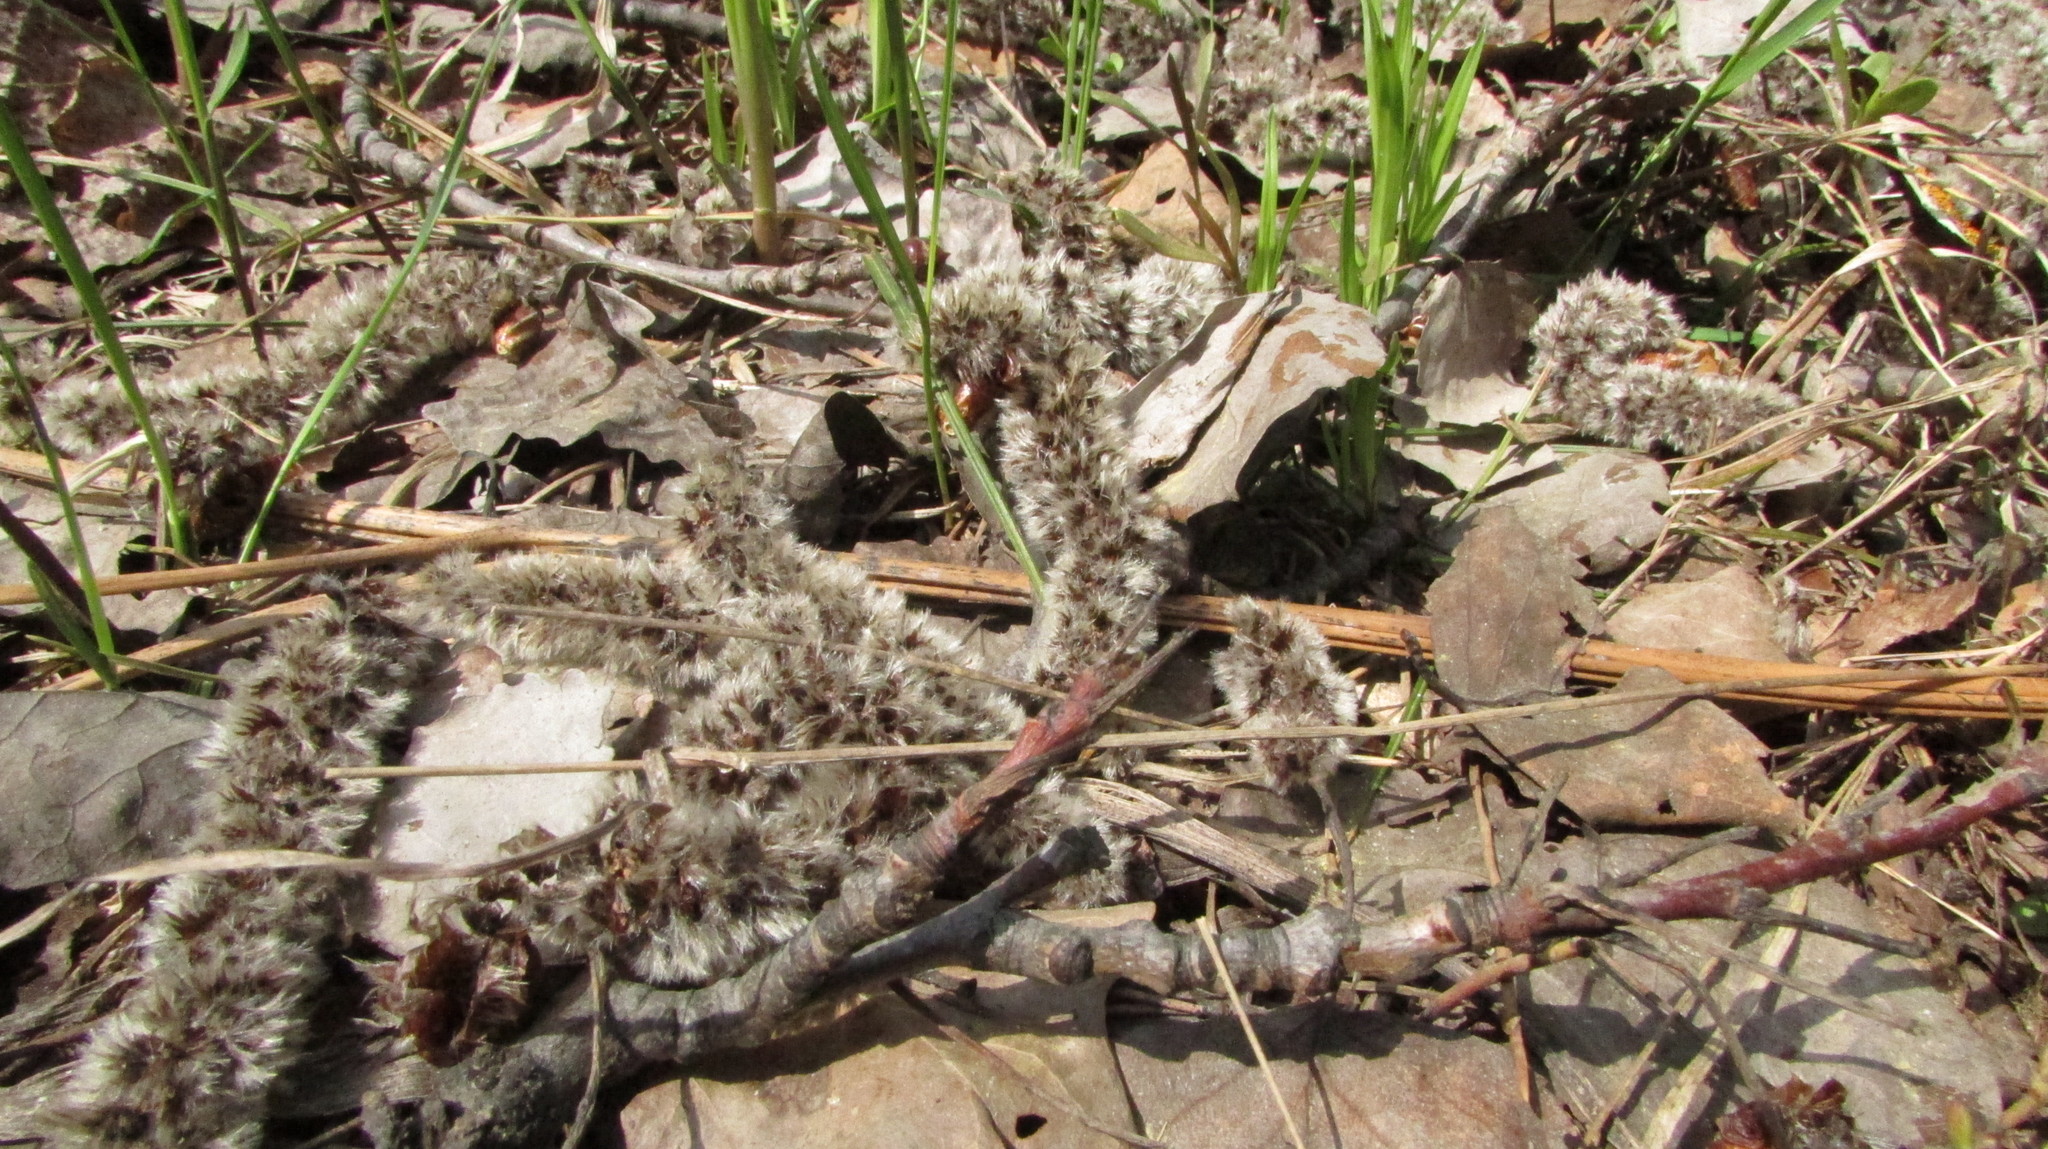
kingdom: Plantae
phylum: Tracheophyta
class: Magnoliopsida
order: Malpighiales
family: Salicaceae
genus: Populus
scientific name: Populus tremula
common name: European aspen
